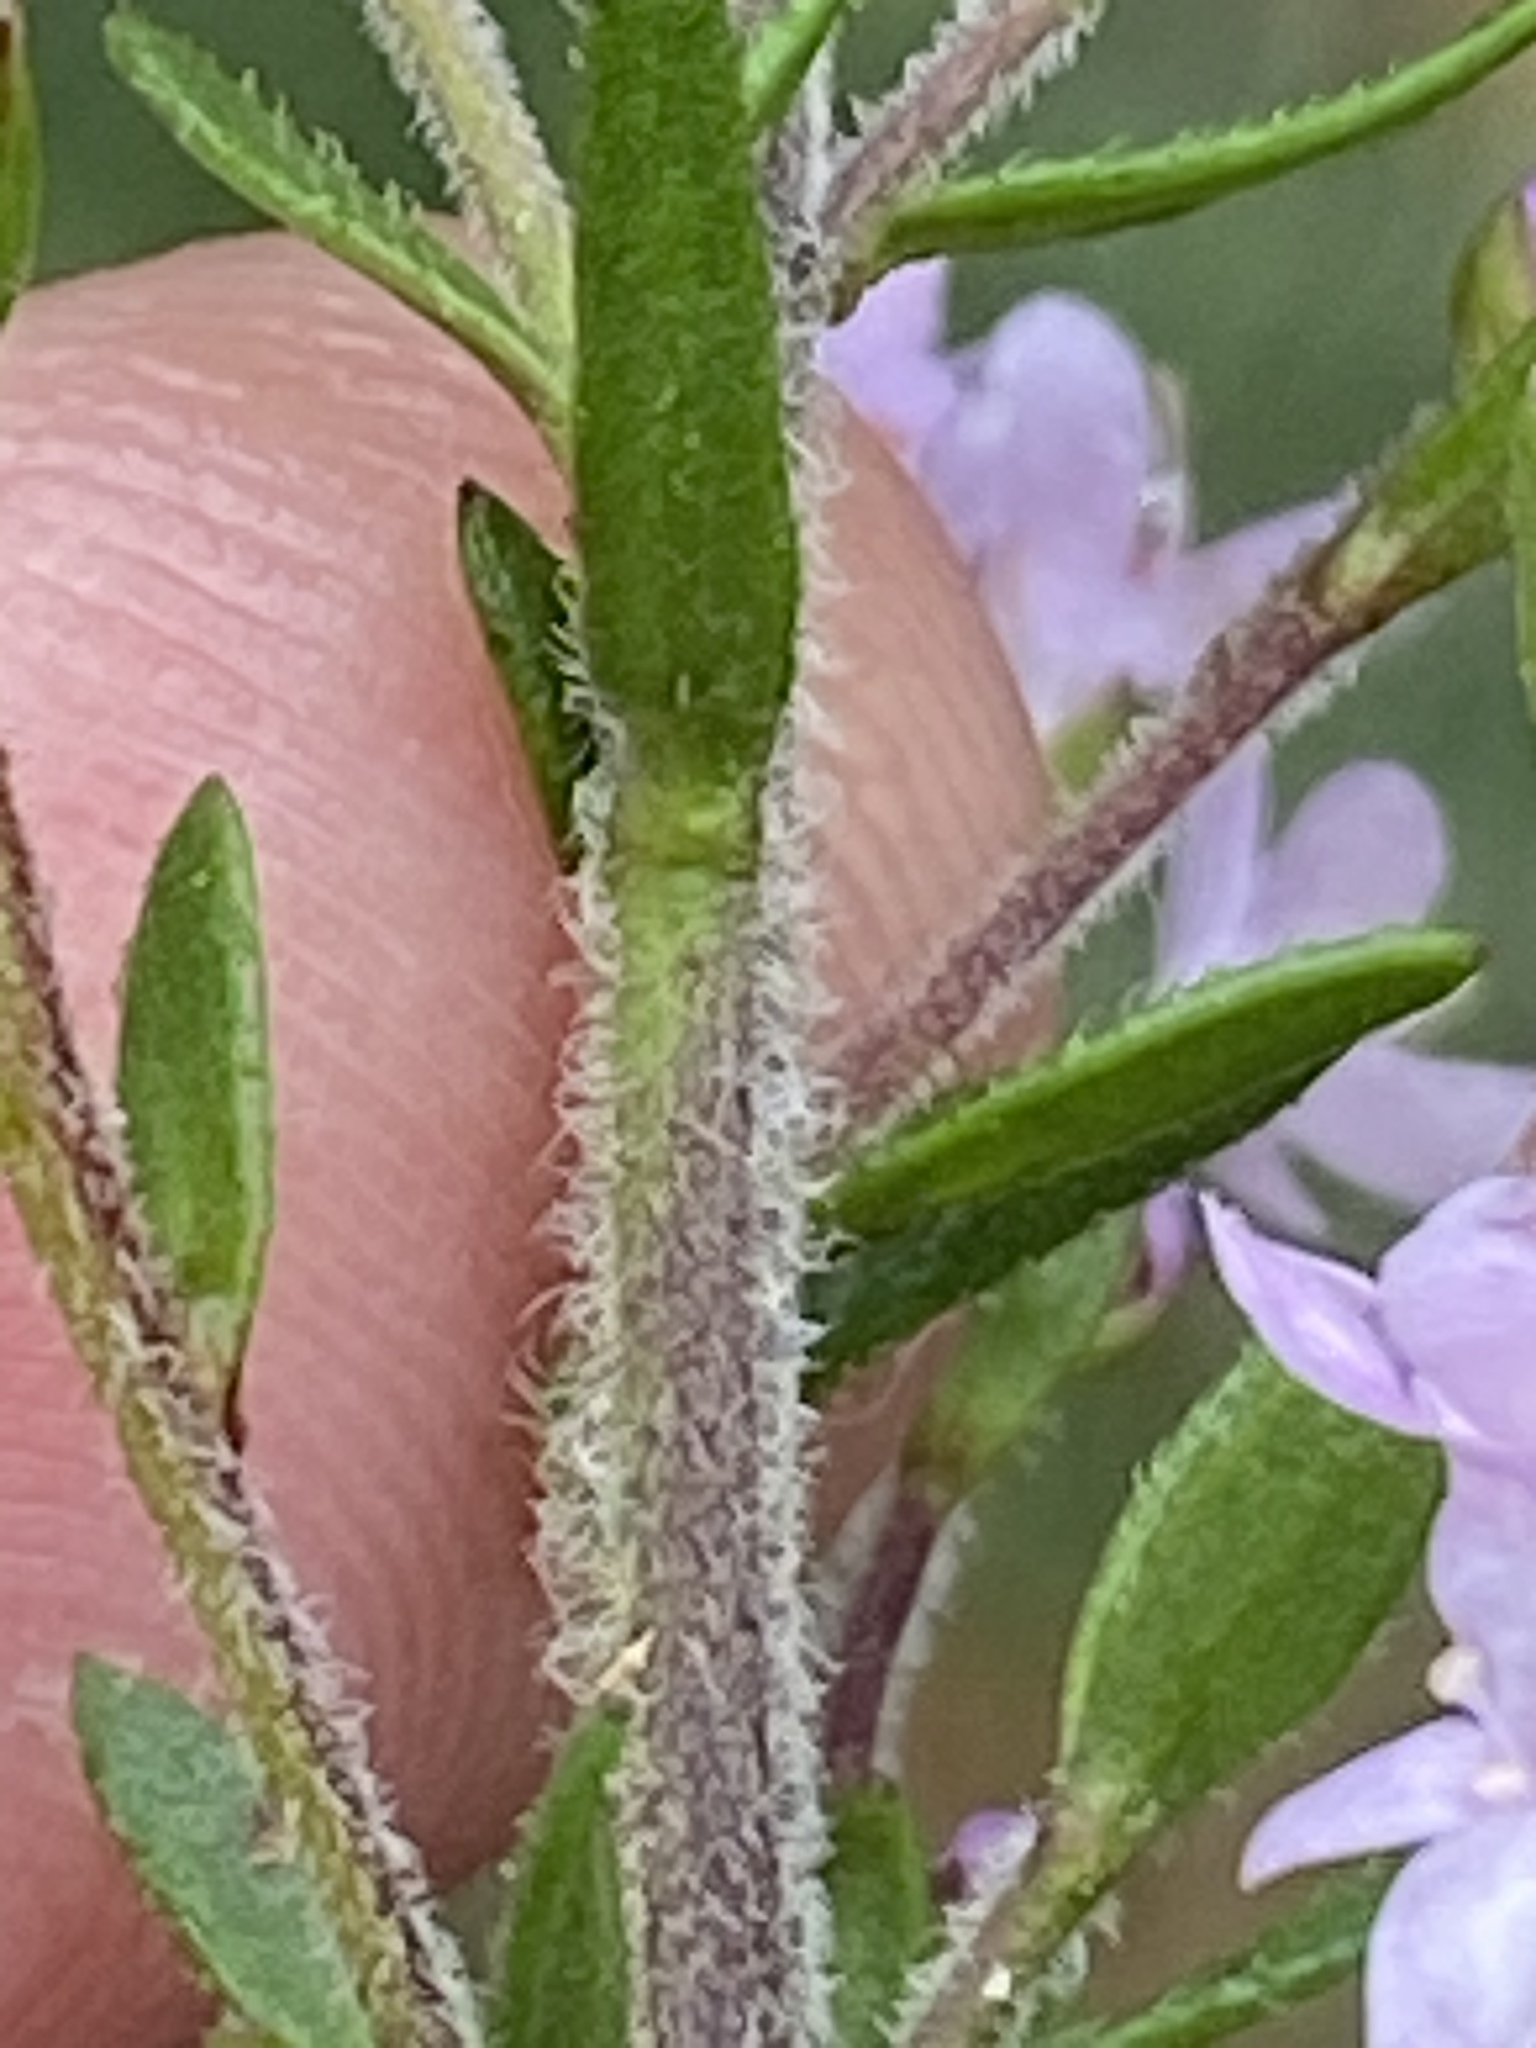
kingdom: Plantae
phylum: Tracheophyta
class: Magnoliopsida
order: Lamiales
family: Scrophulariaceae
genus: Selago
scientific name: Selago burchellii
